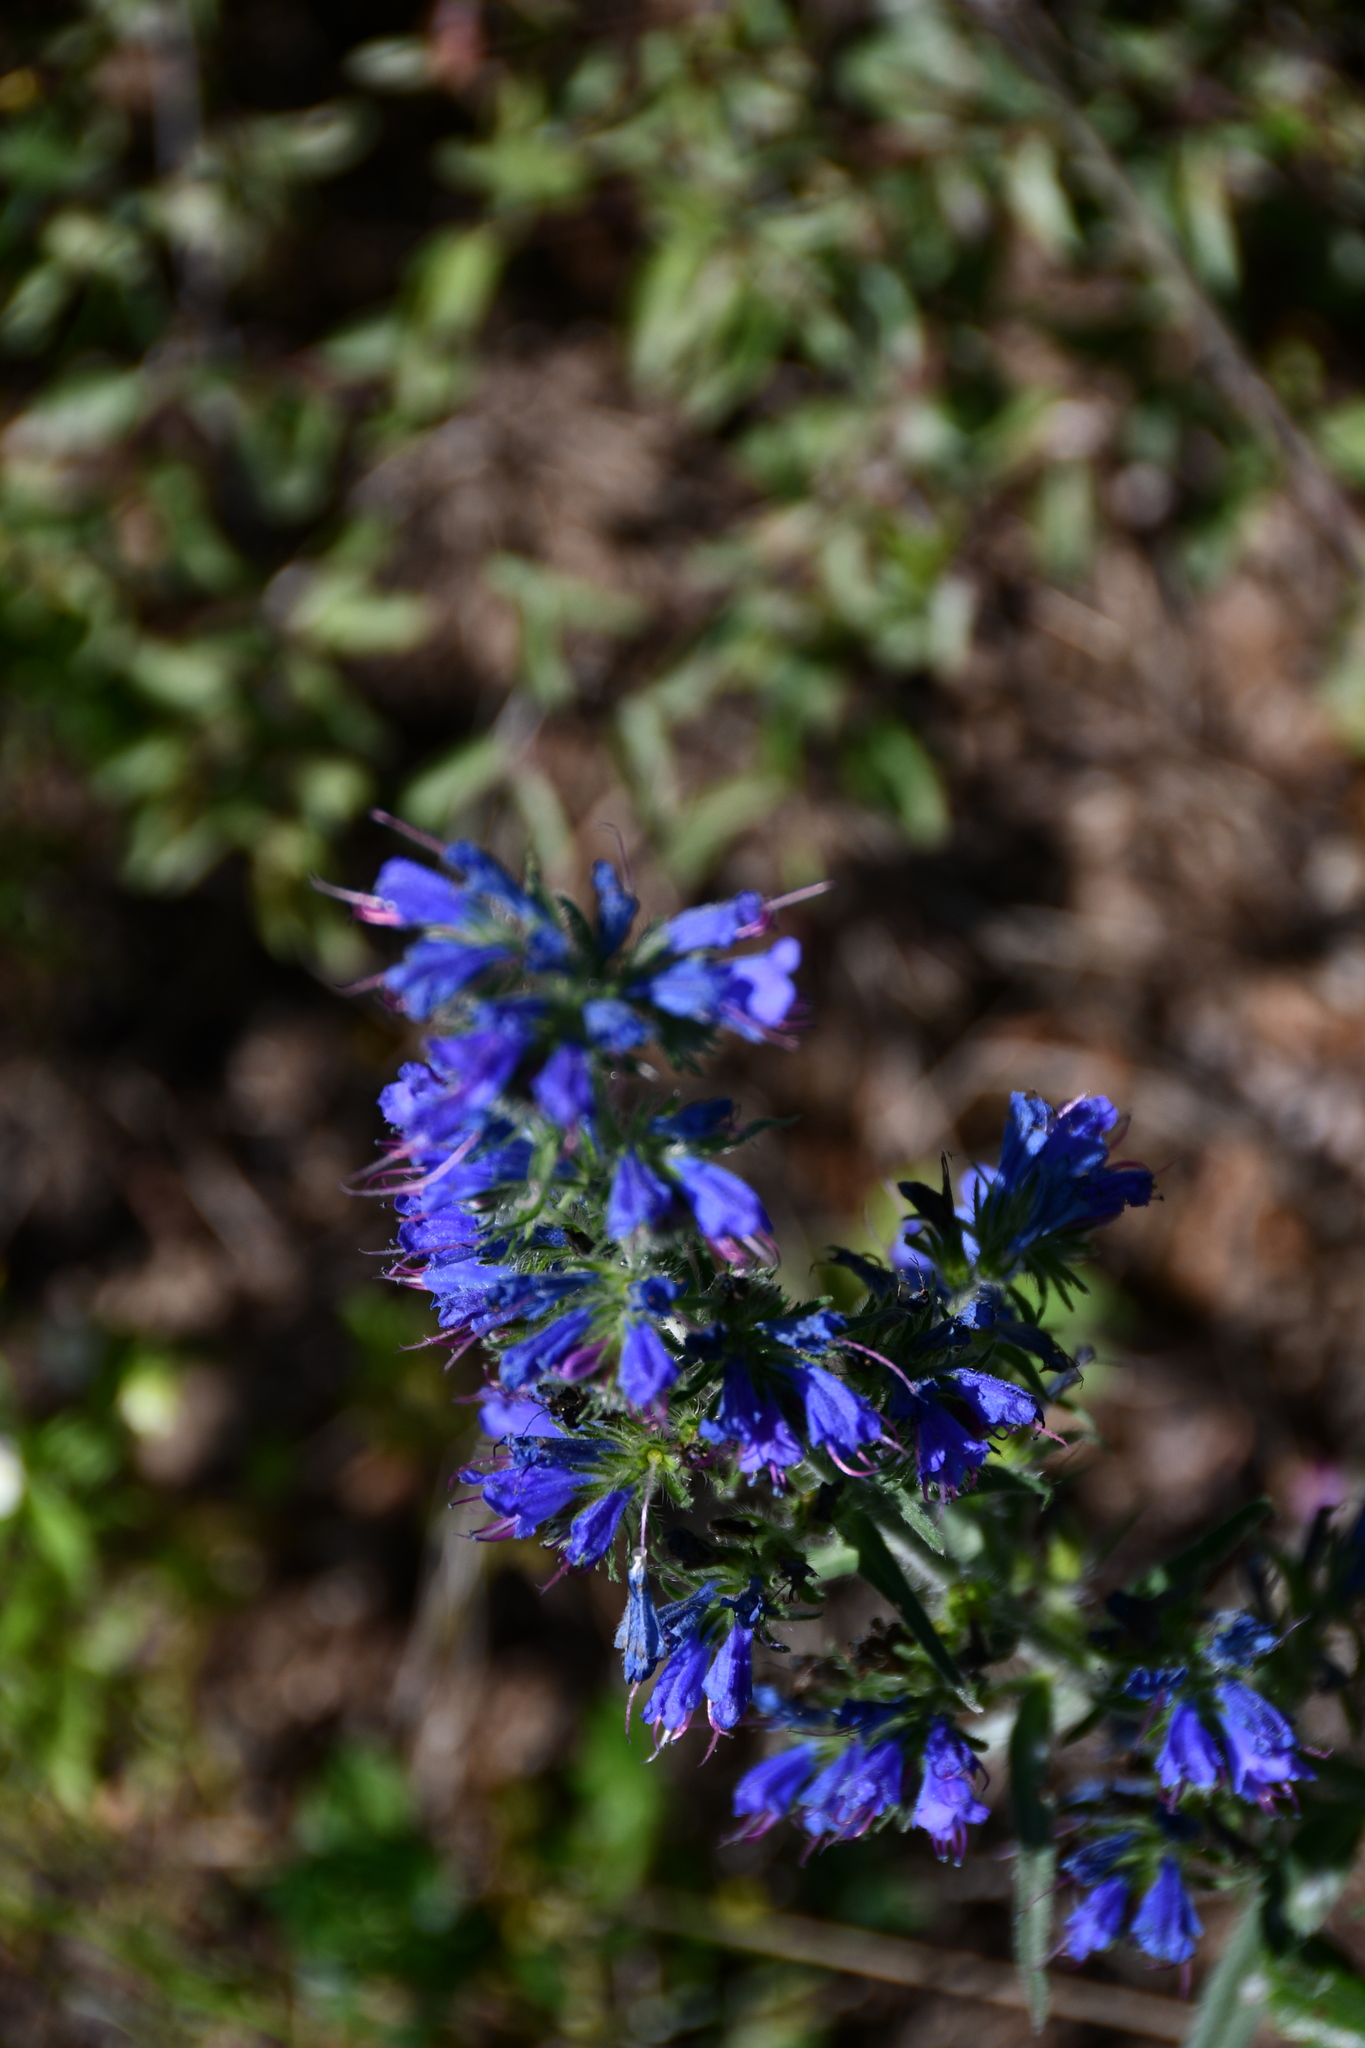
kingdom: Plantae
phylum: Tracheophyta
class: Magnoliopsida
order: Boraginales
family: Boraginaceae
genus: Echium
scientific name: Echium vulgare
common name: Common viper's bugloss
